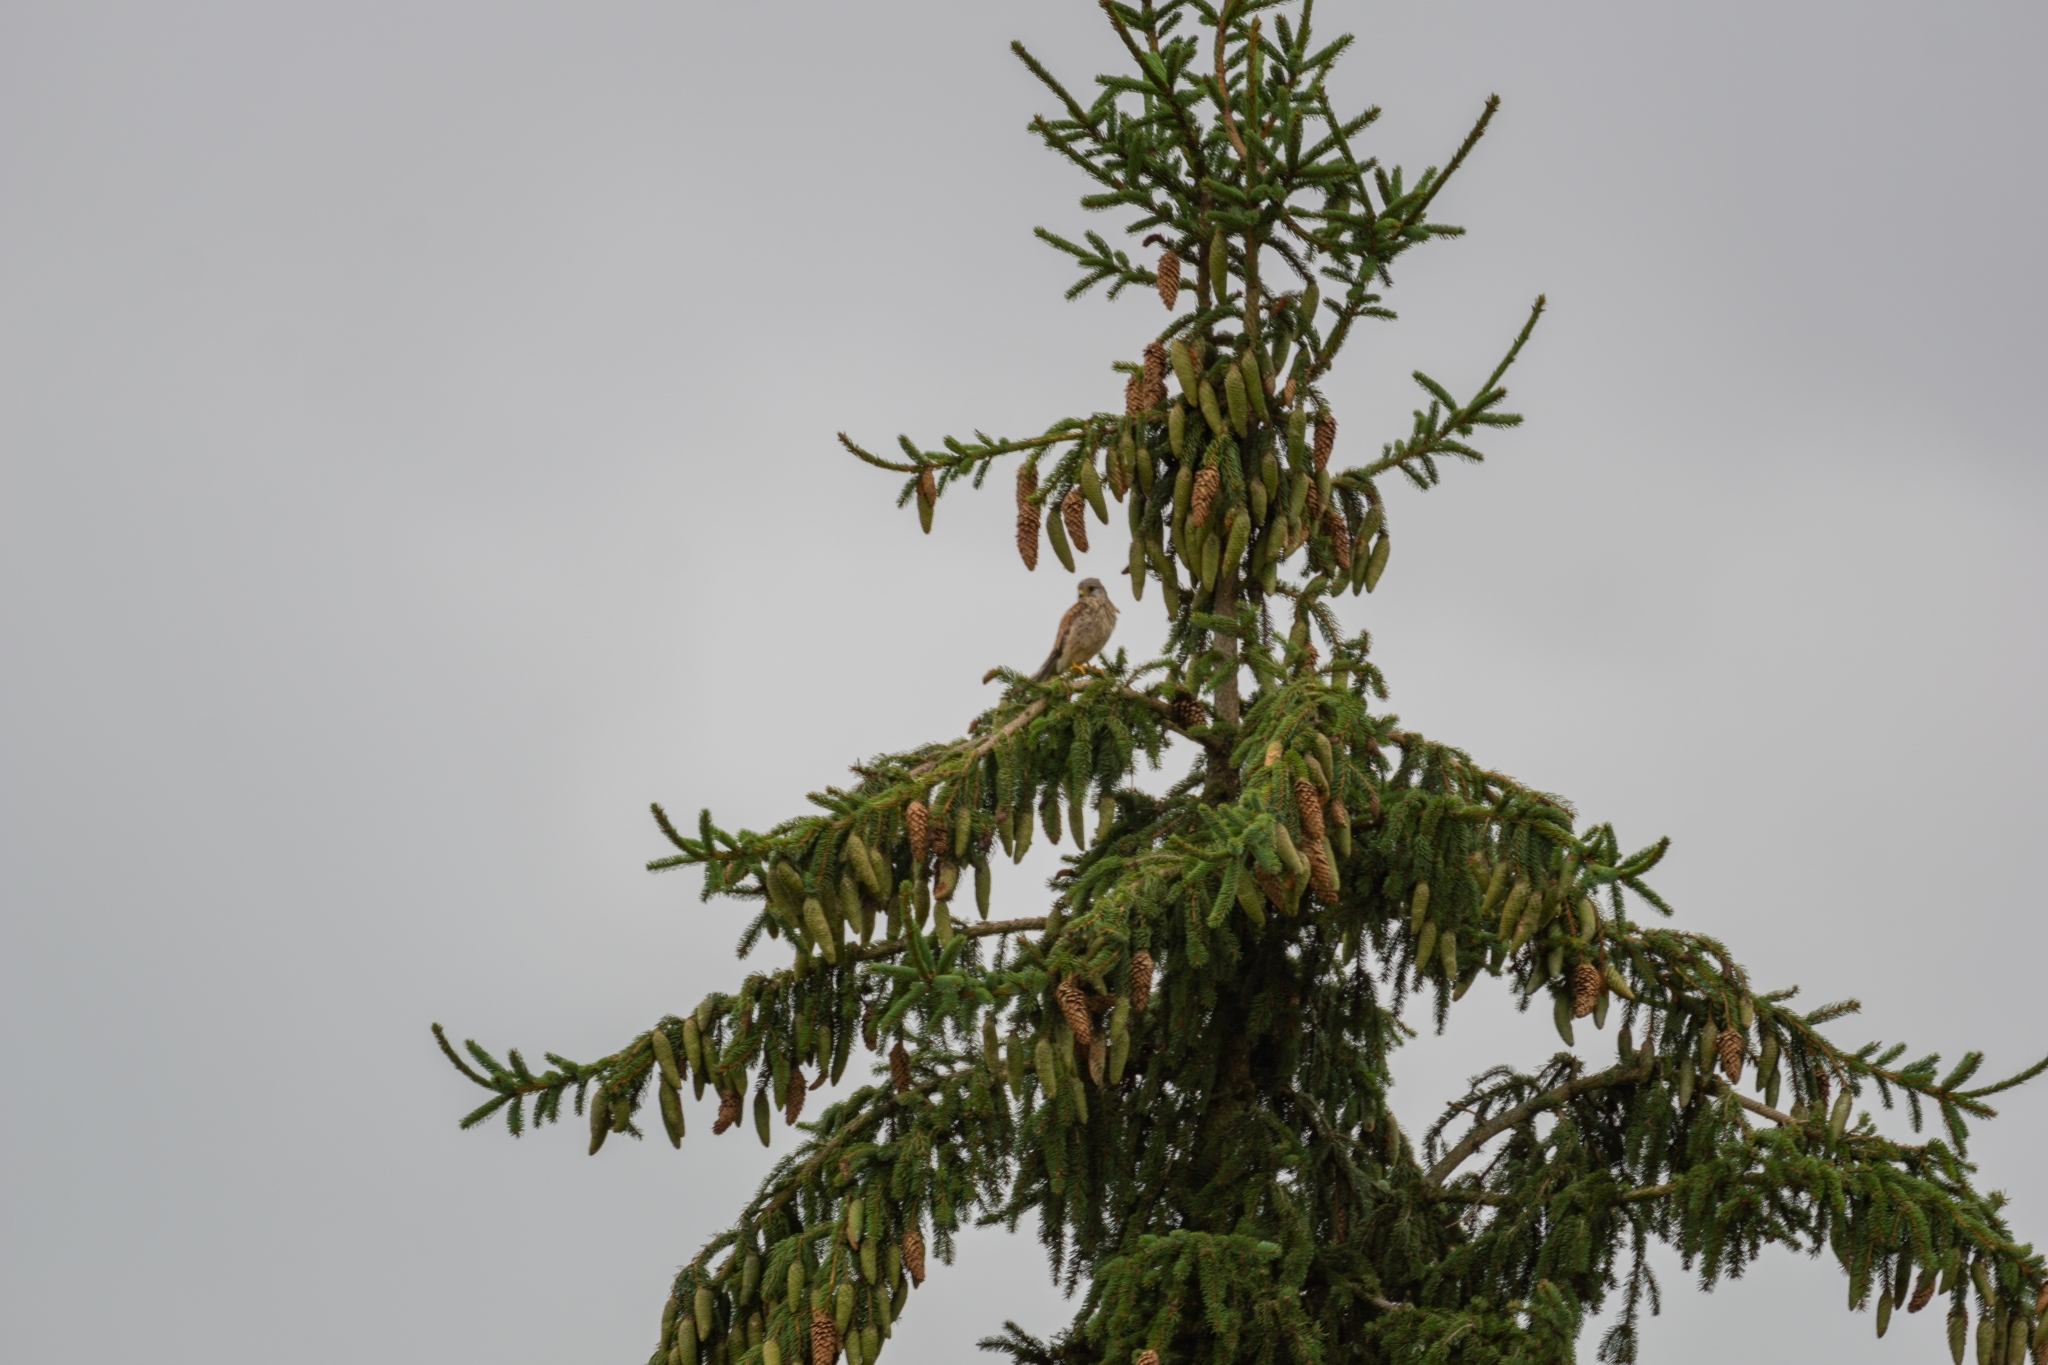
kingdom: Animalia
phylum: Chordata
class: Aves
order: Falconiformes
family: Falconidae
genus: Falco
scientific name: Falco tinnunculus
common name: Common kestrel
